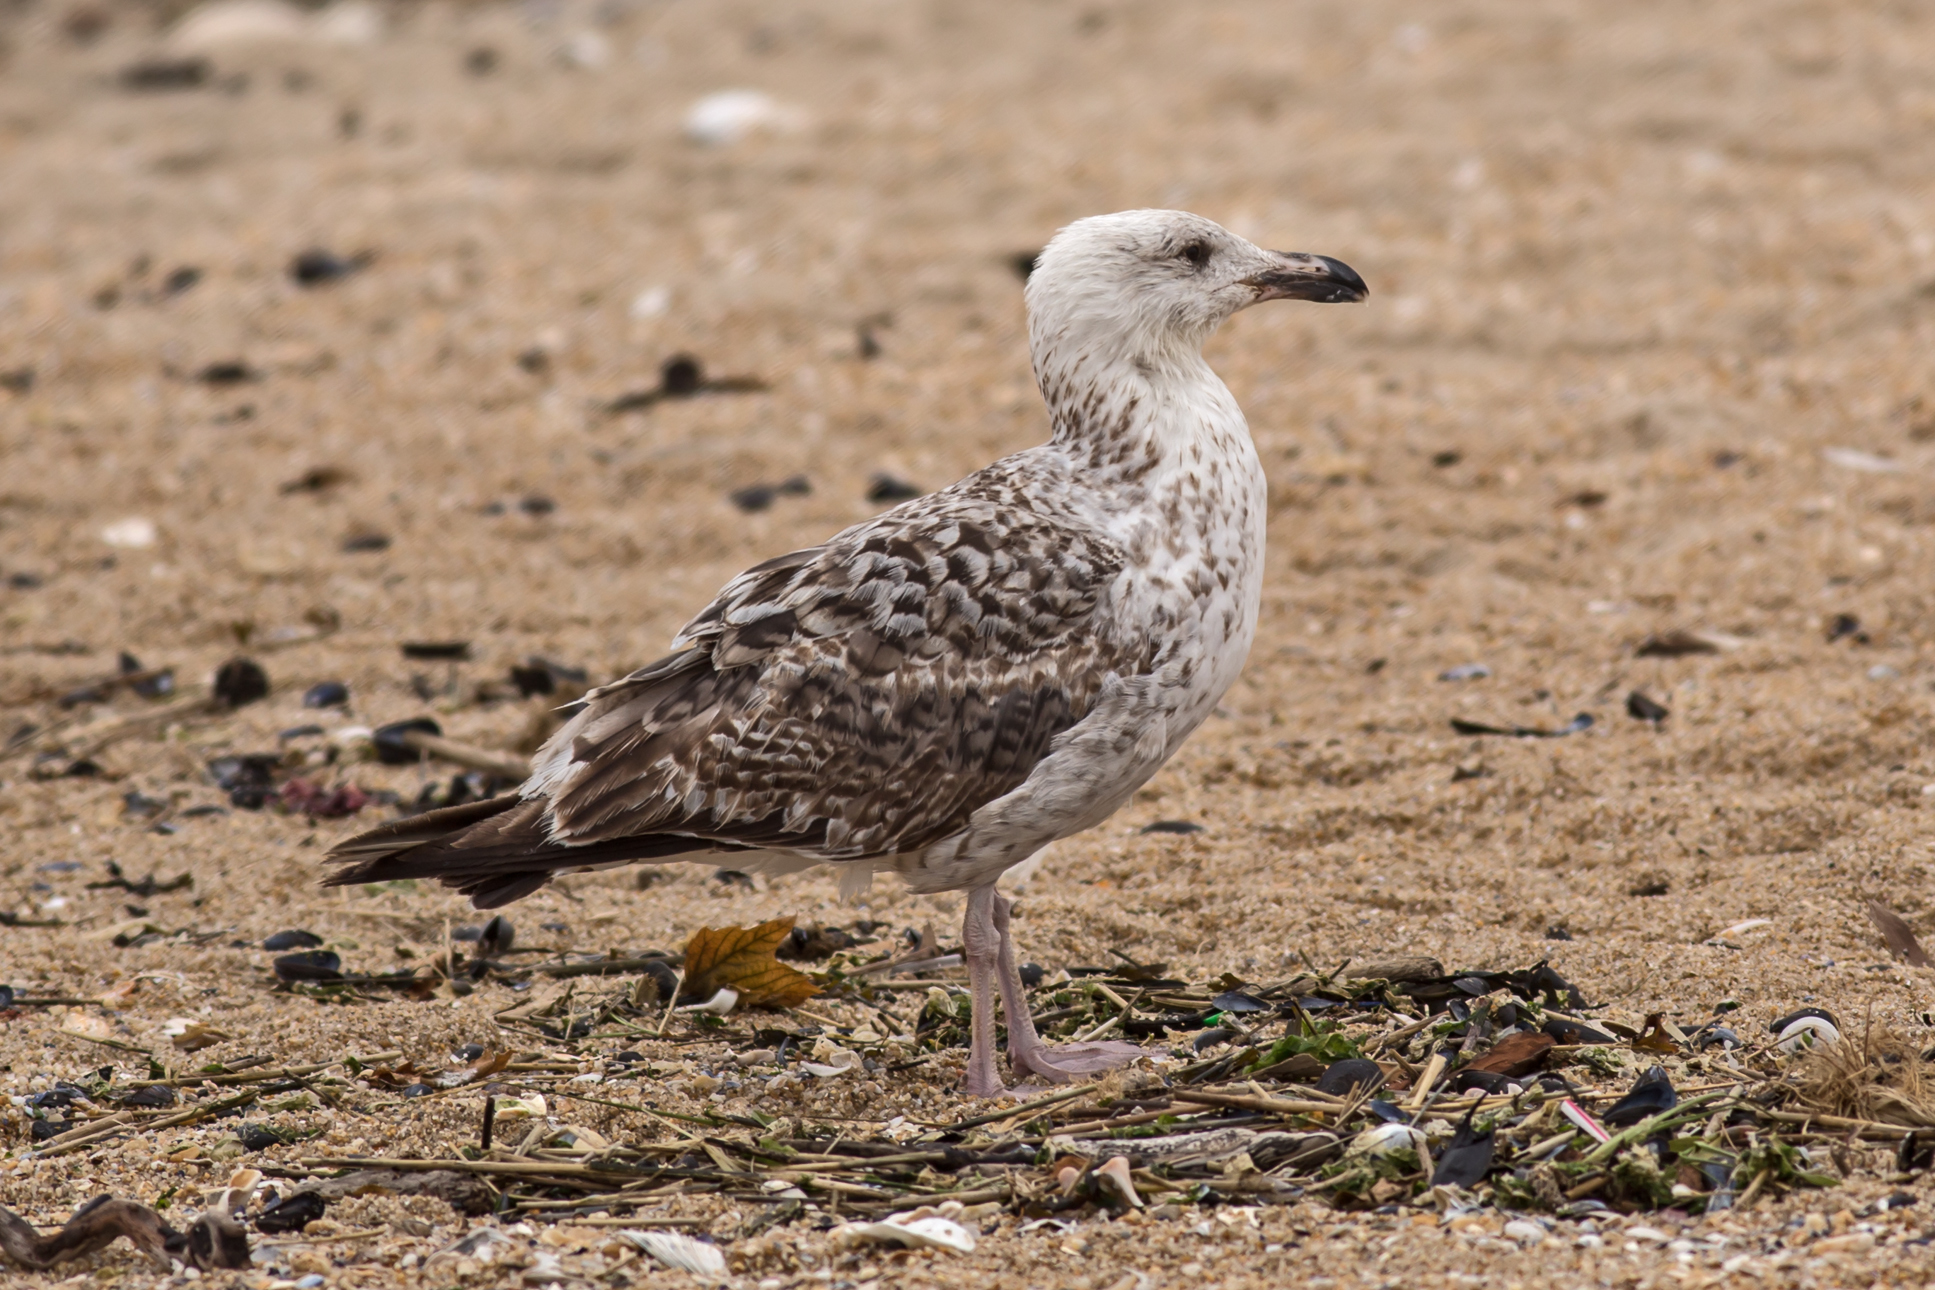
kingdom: Animalia
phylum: Chordata
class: Aves
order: Charadriiformes
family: Laridae
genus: Larus
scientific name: Larus marinus
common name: Great black-backed gull
